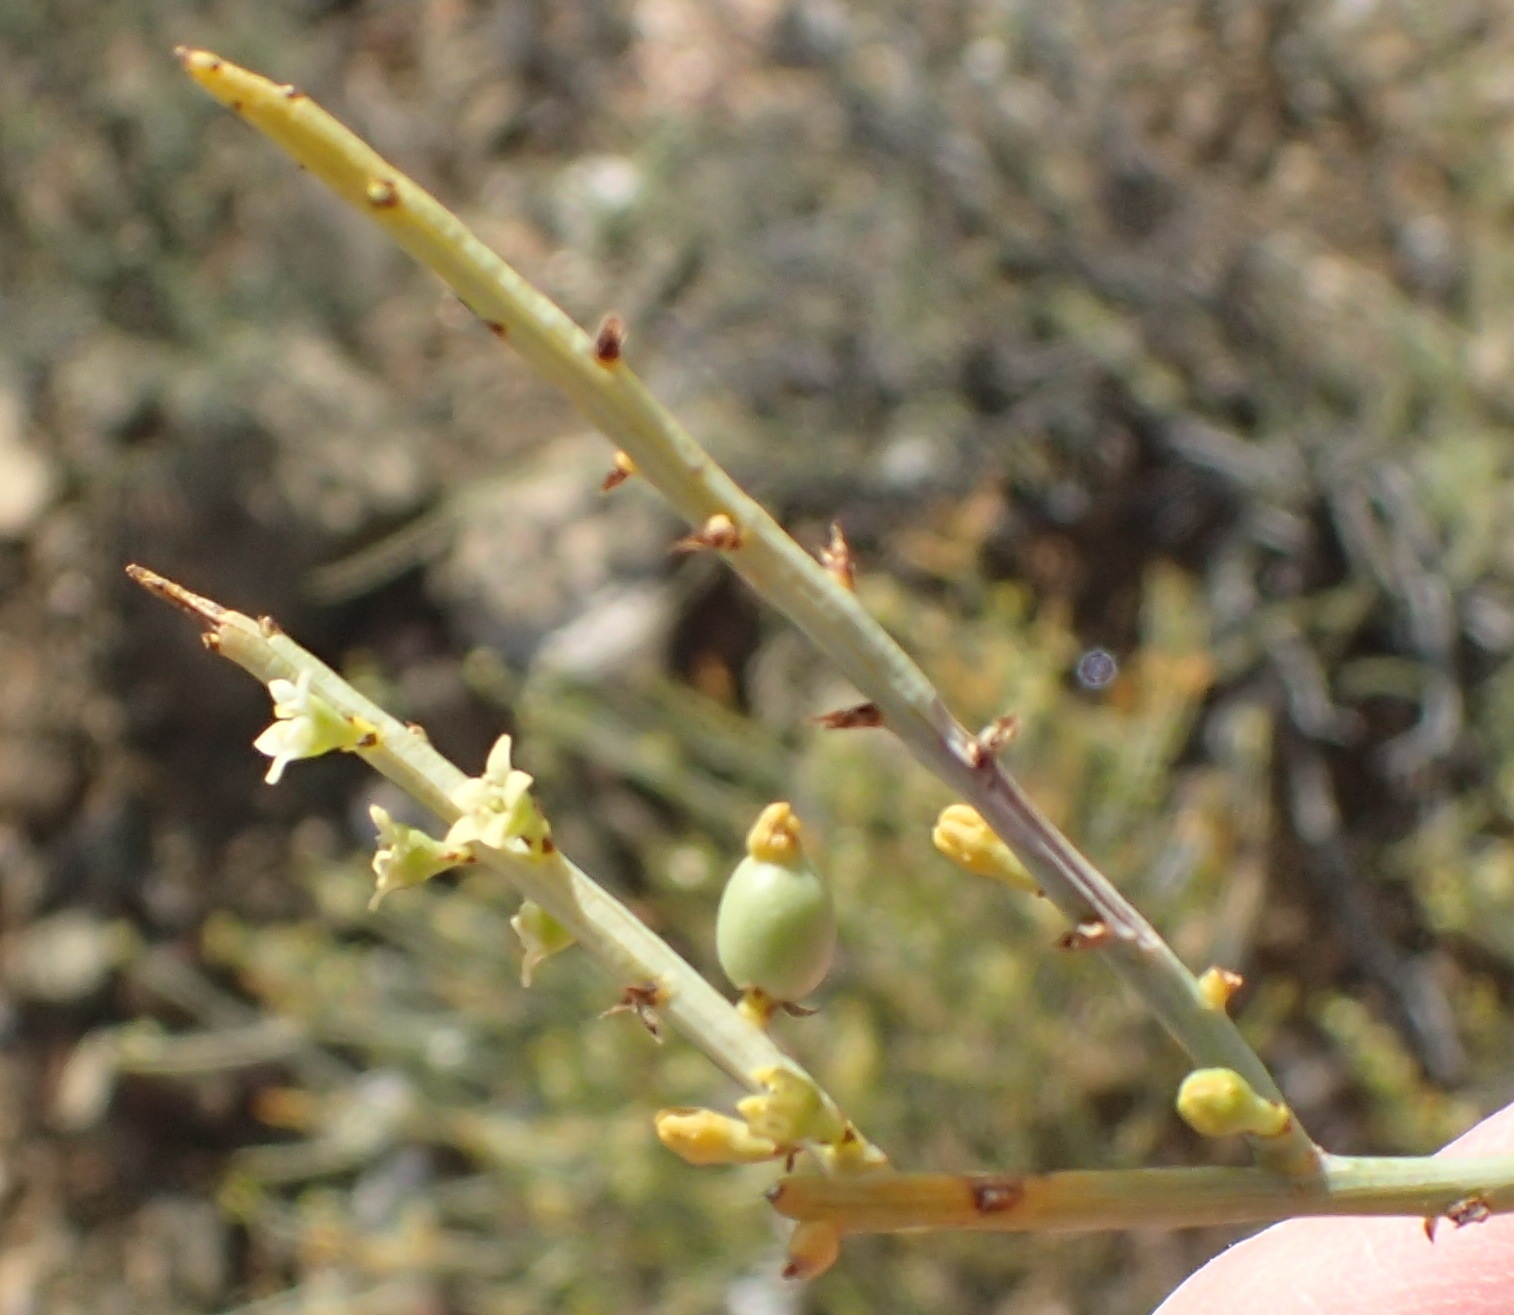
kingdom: Plantae
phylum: Tracheophyta
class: Magnoliopsida
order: Santalales
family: Thesiaceae
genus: Lacomucinaea
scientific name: Lacomucinaea lineata
